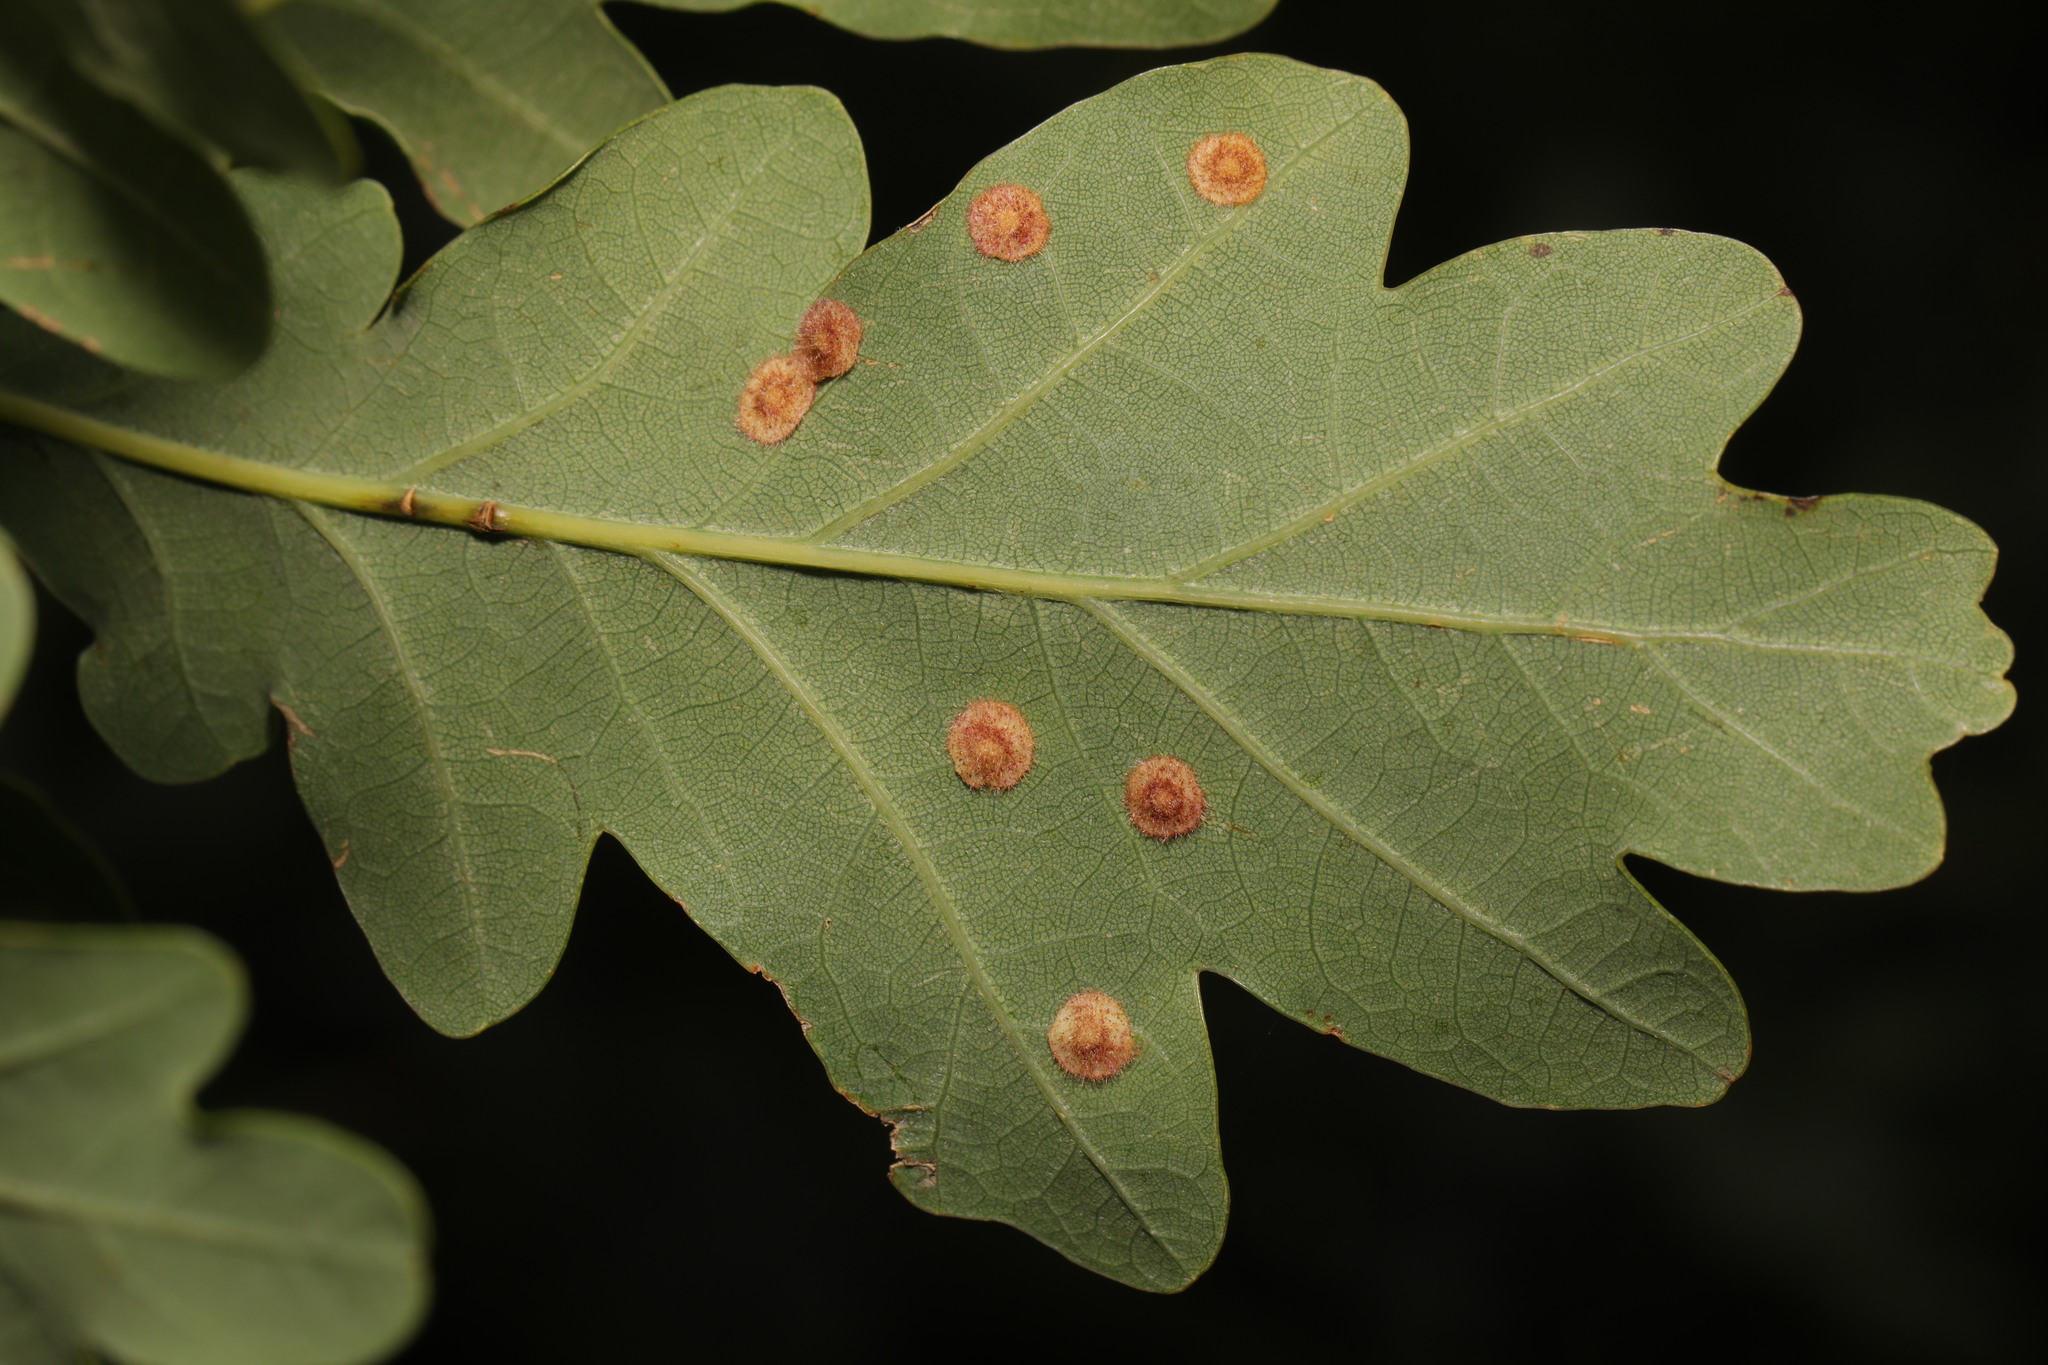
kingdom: Animalia
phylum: Arthropoda
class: Insecta
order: Hymenoptera
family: Cynipidae
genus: Neuroterus
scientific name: Neuroterus quercusbaccarum
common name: Common spangle gall
